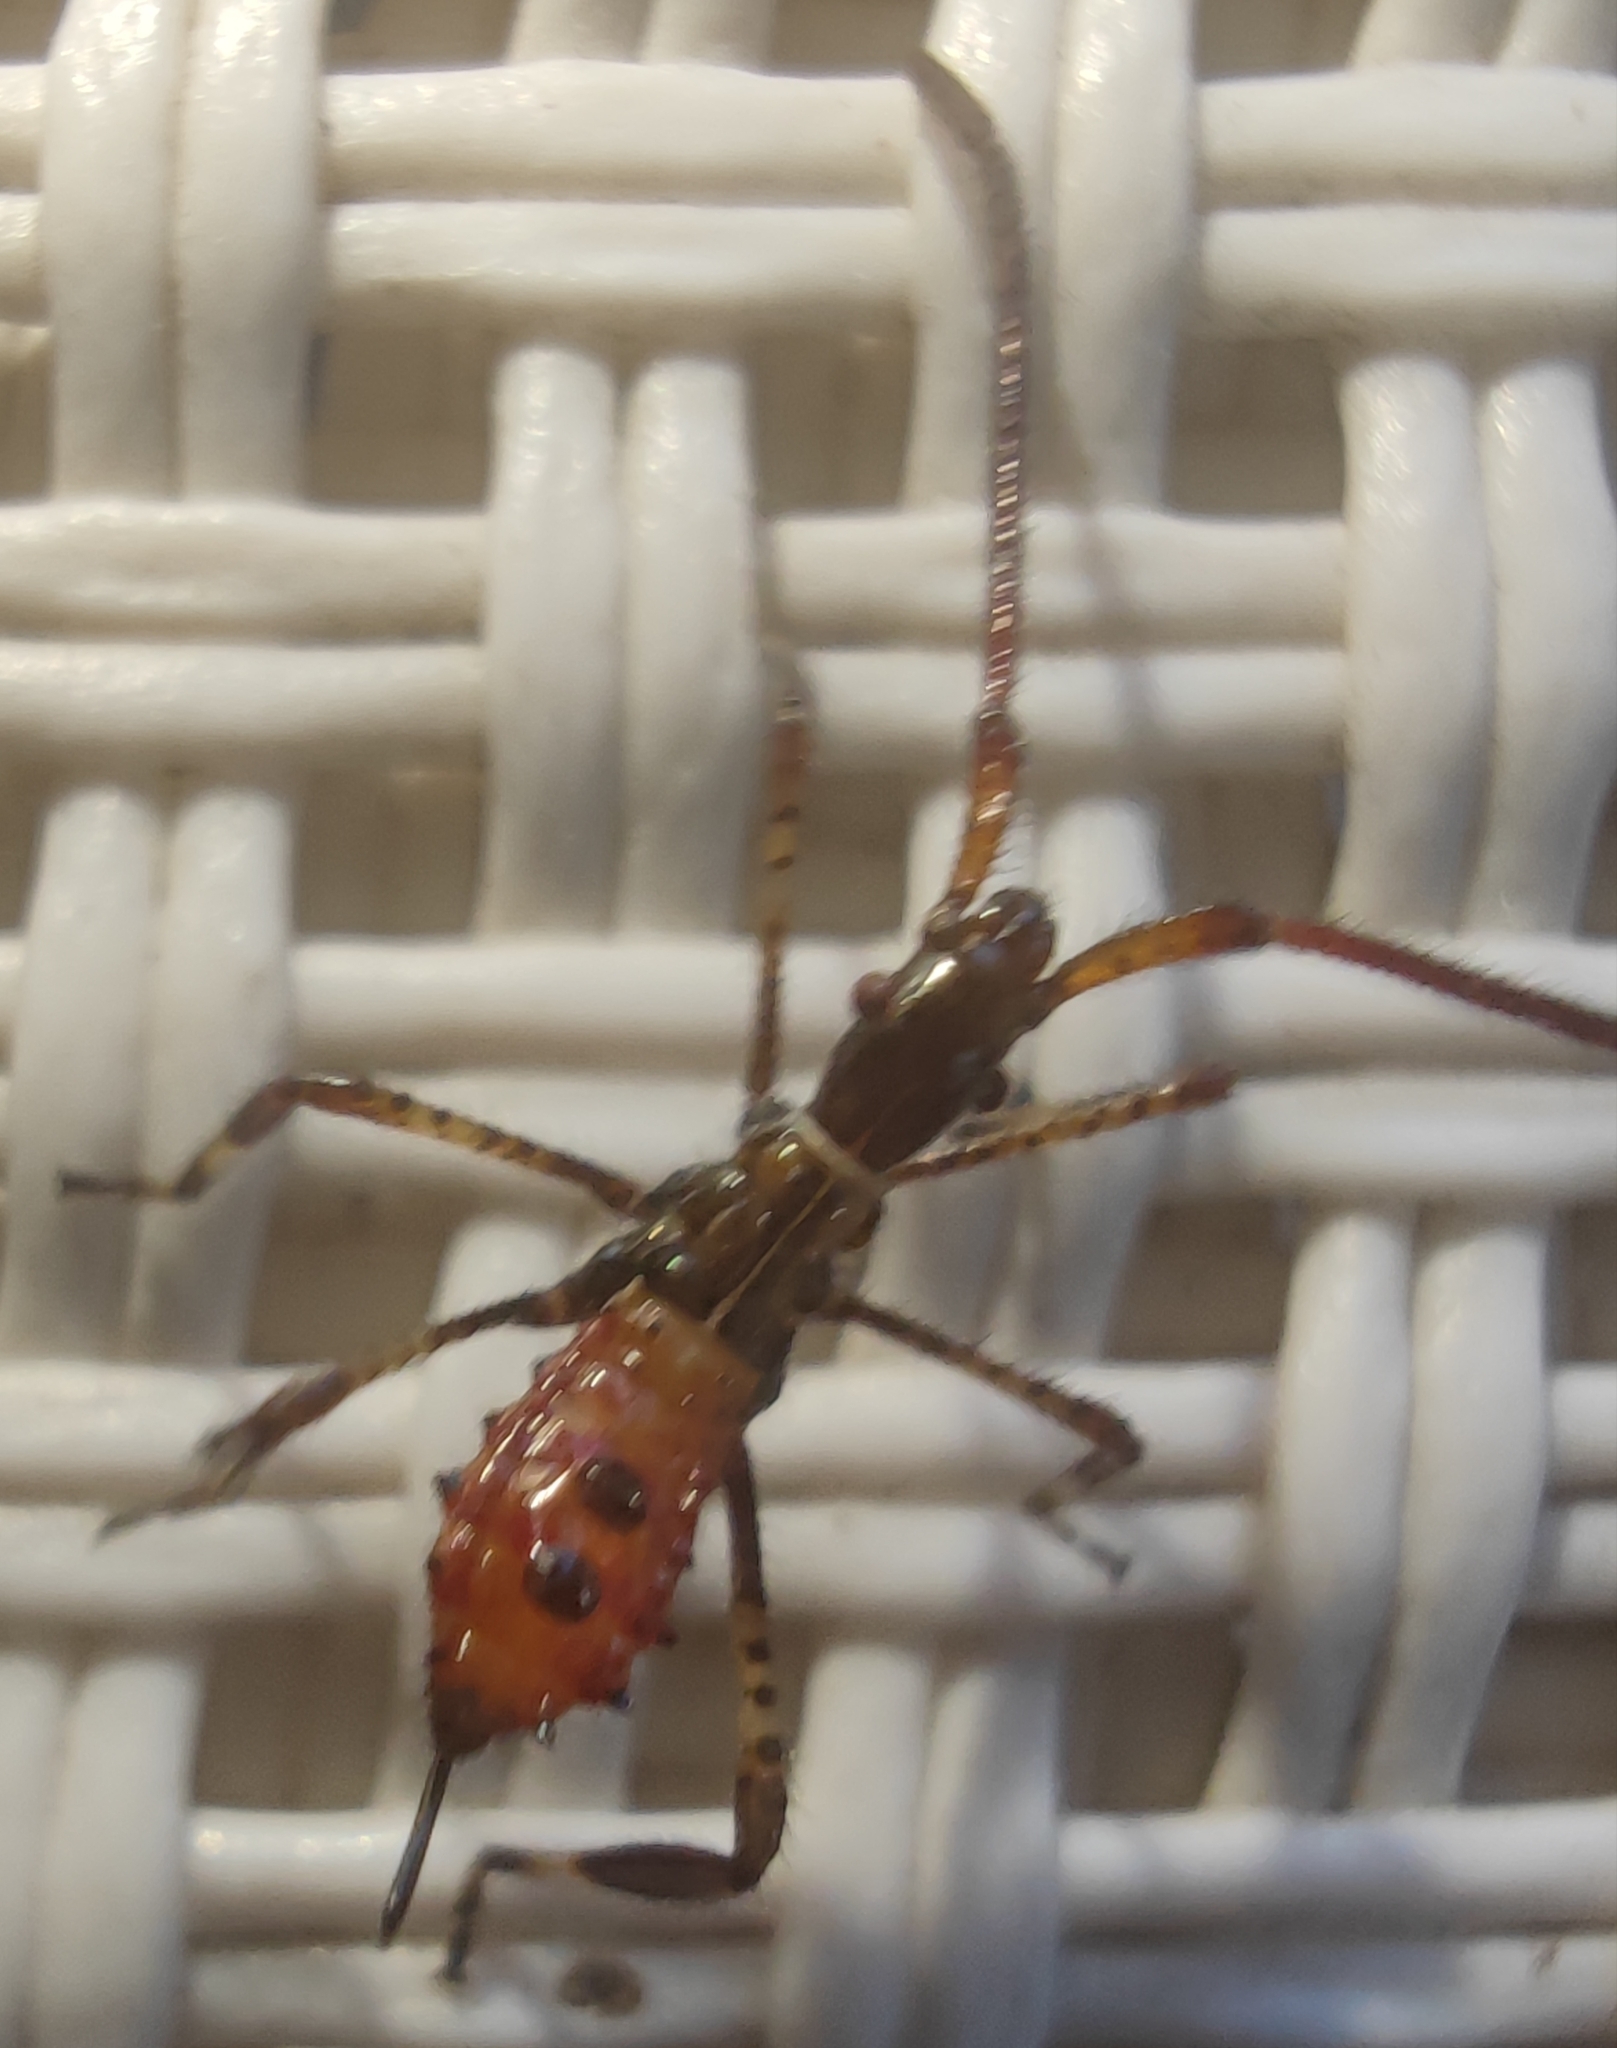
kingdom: Animalia
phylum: Arthropoda
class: Insecta
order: Hemiptera
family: Coreidae
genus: Leptoglossus
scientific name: Leptoglossus occidentalis
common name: Western conifer-seed bug
